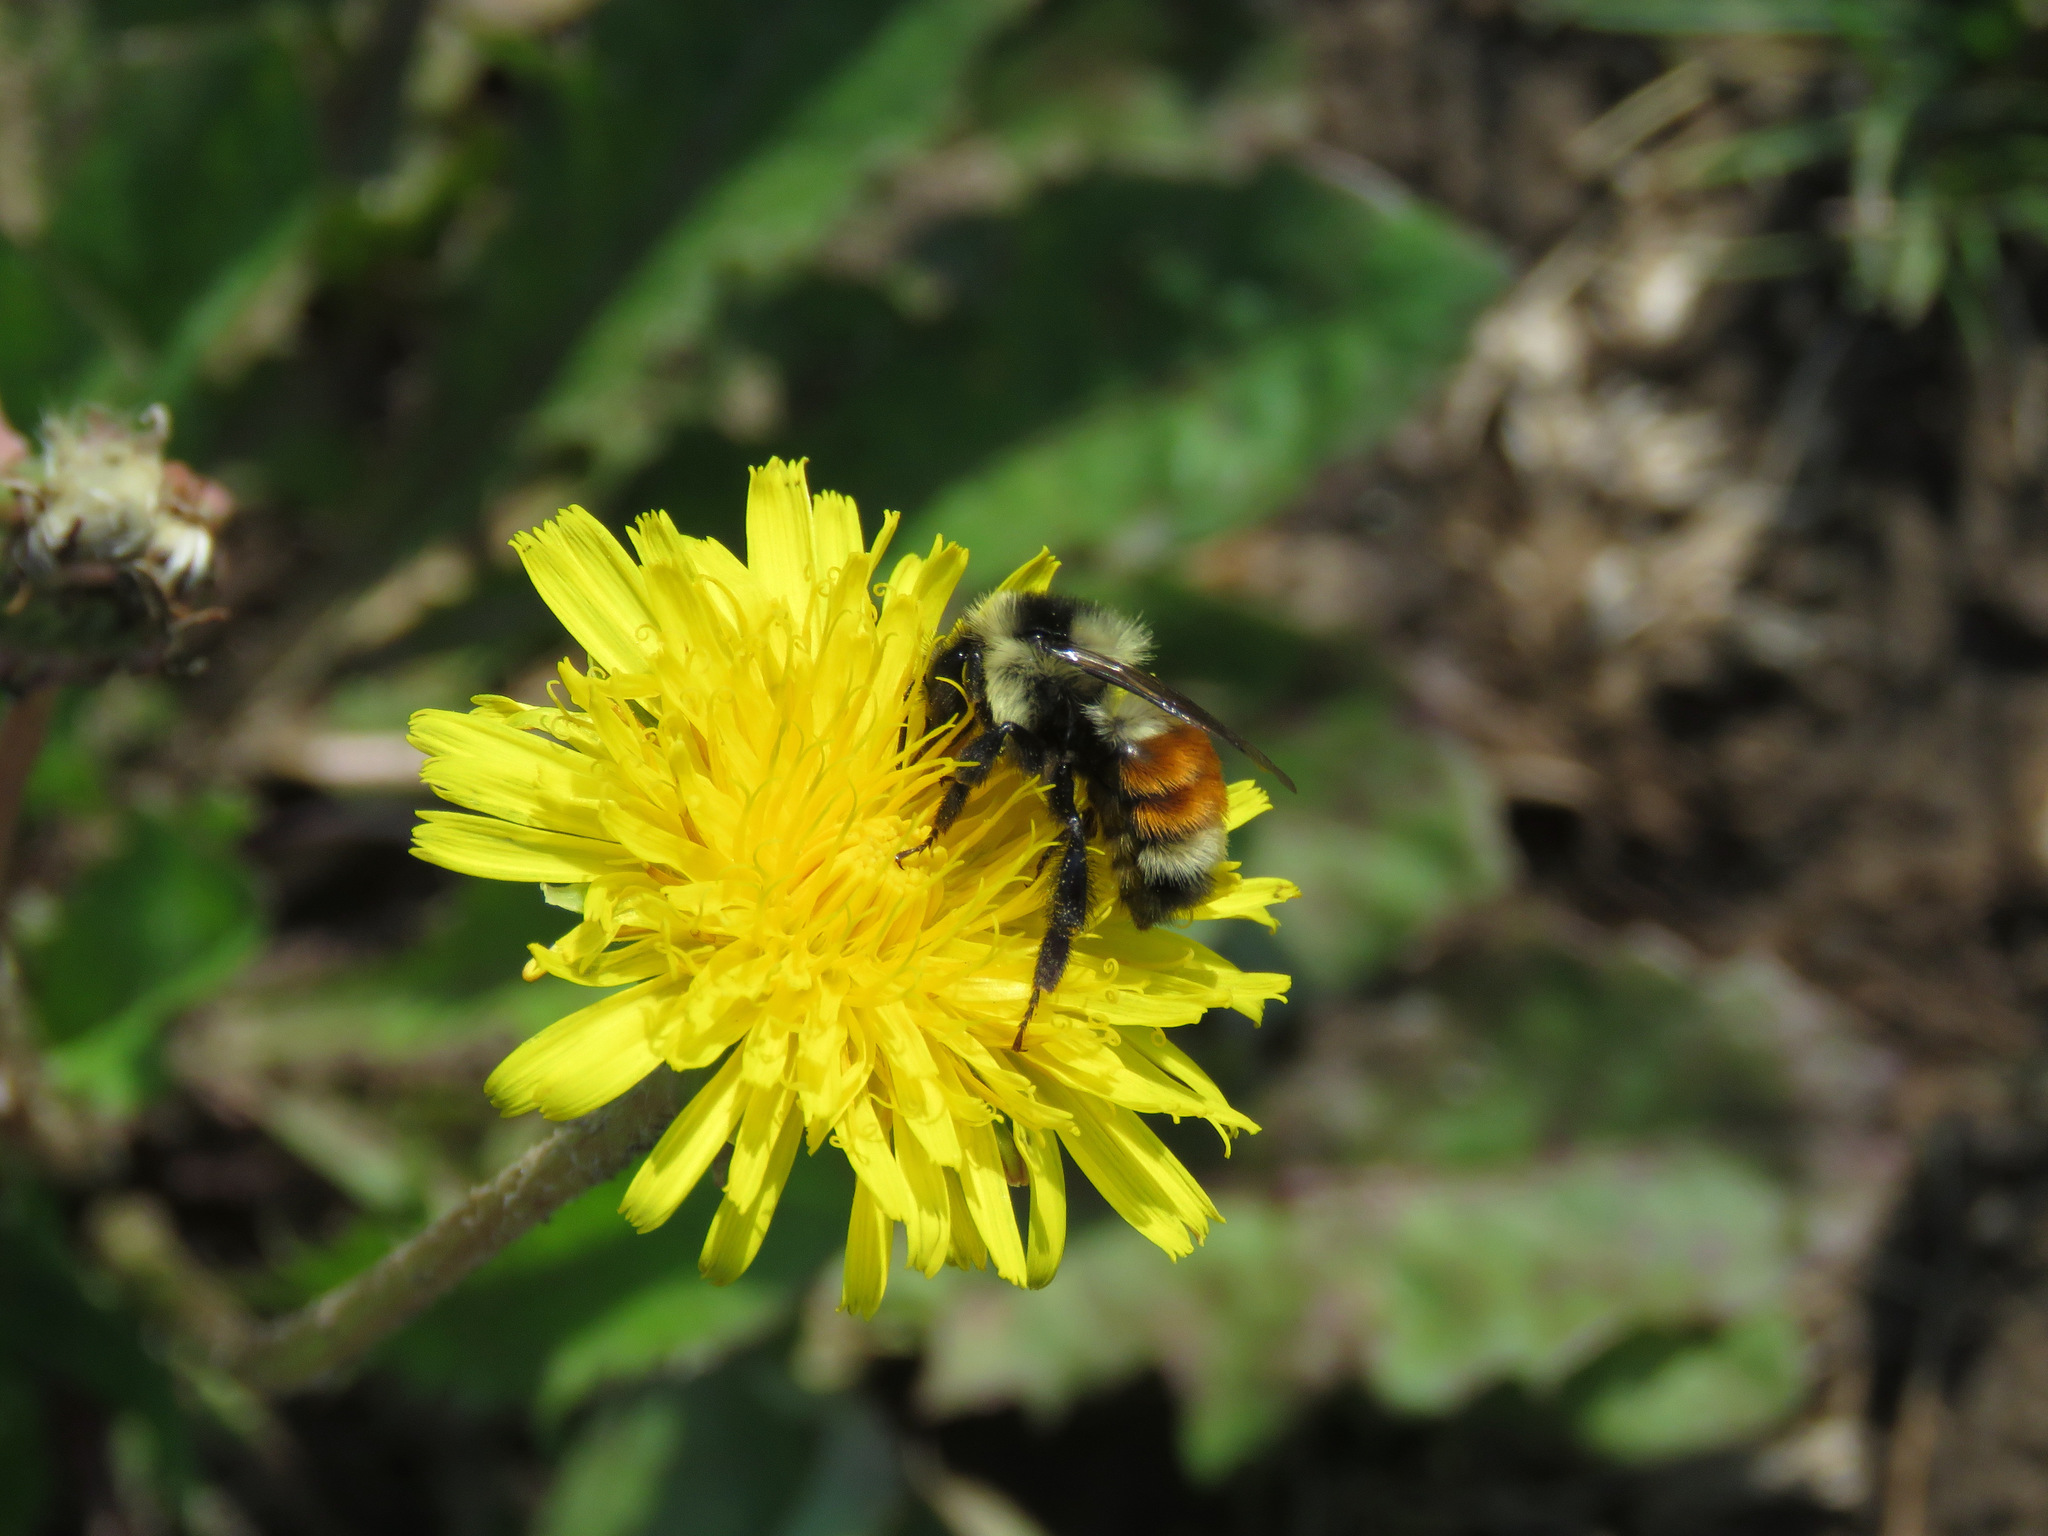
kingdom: Animalia
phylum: Arthropoda
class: Insecta
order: Hymenoptera
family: Apidae
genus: Bombus
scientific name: Bombus ternarius
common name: Tri-colored bumble bee
